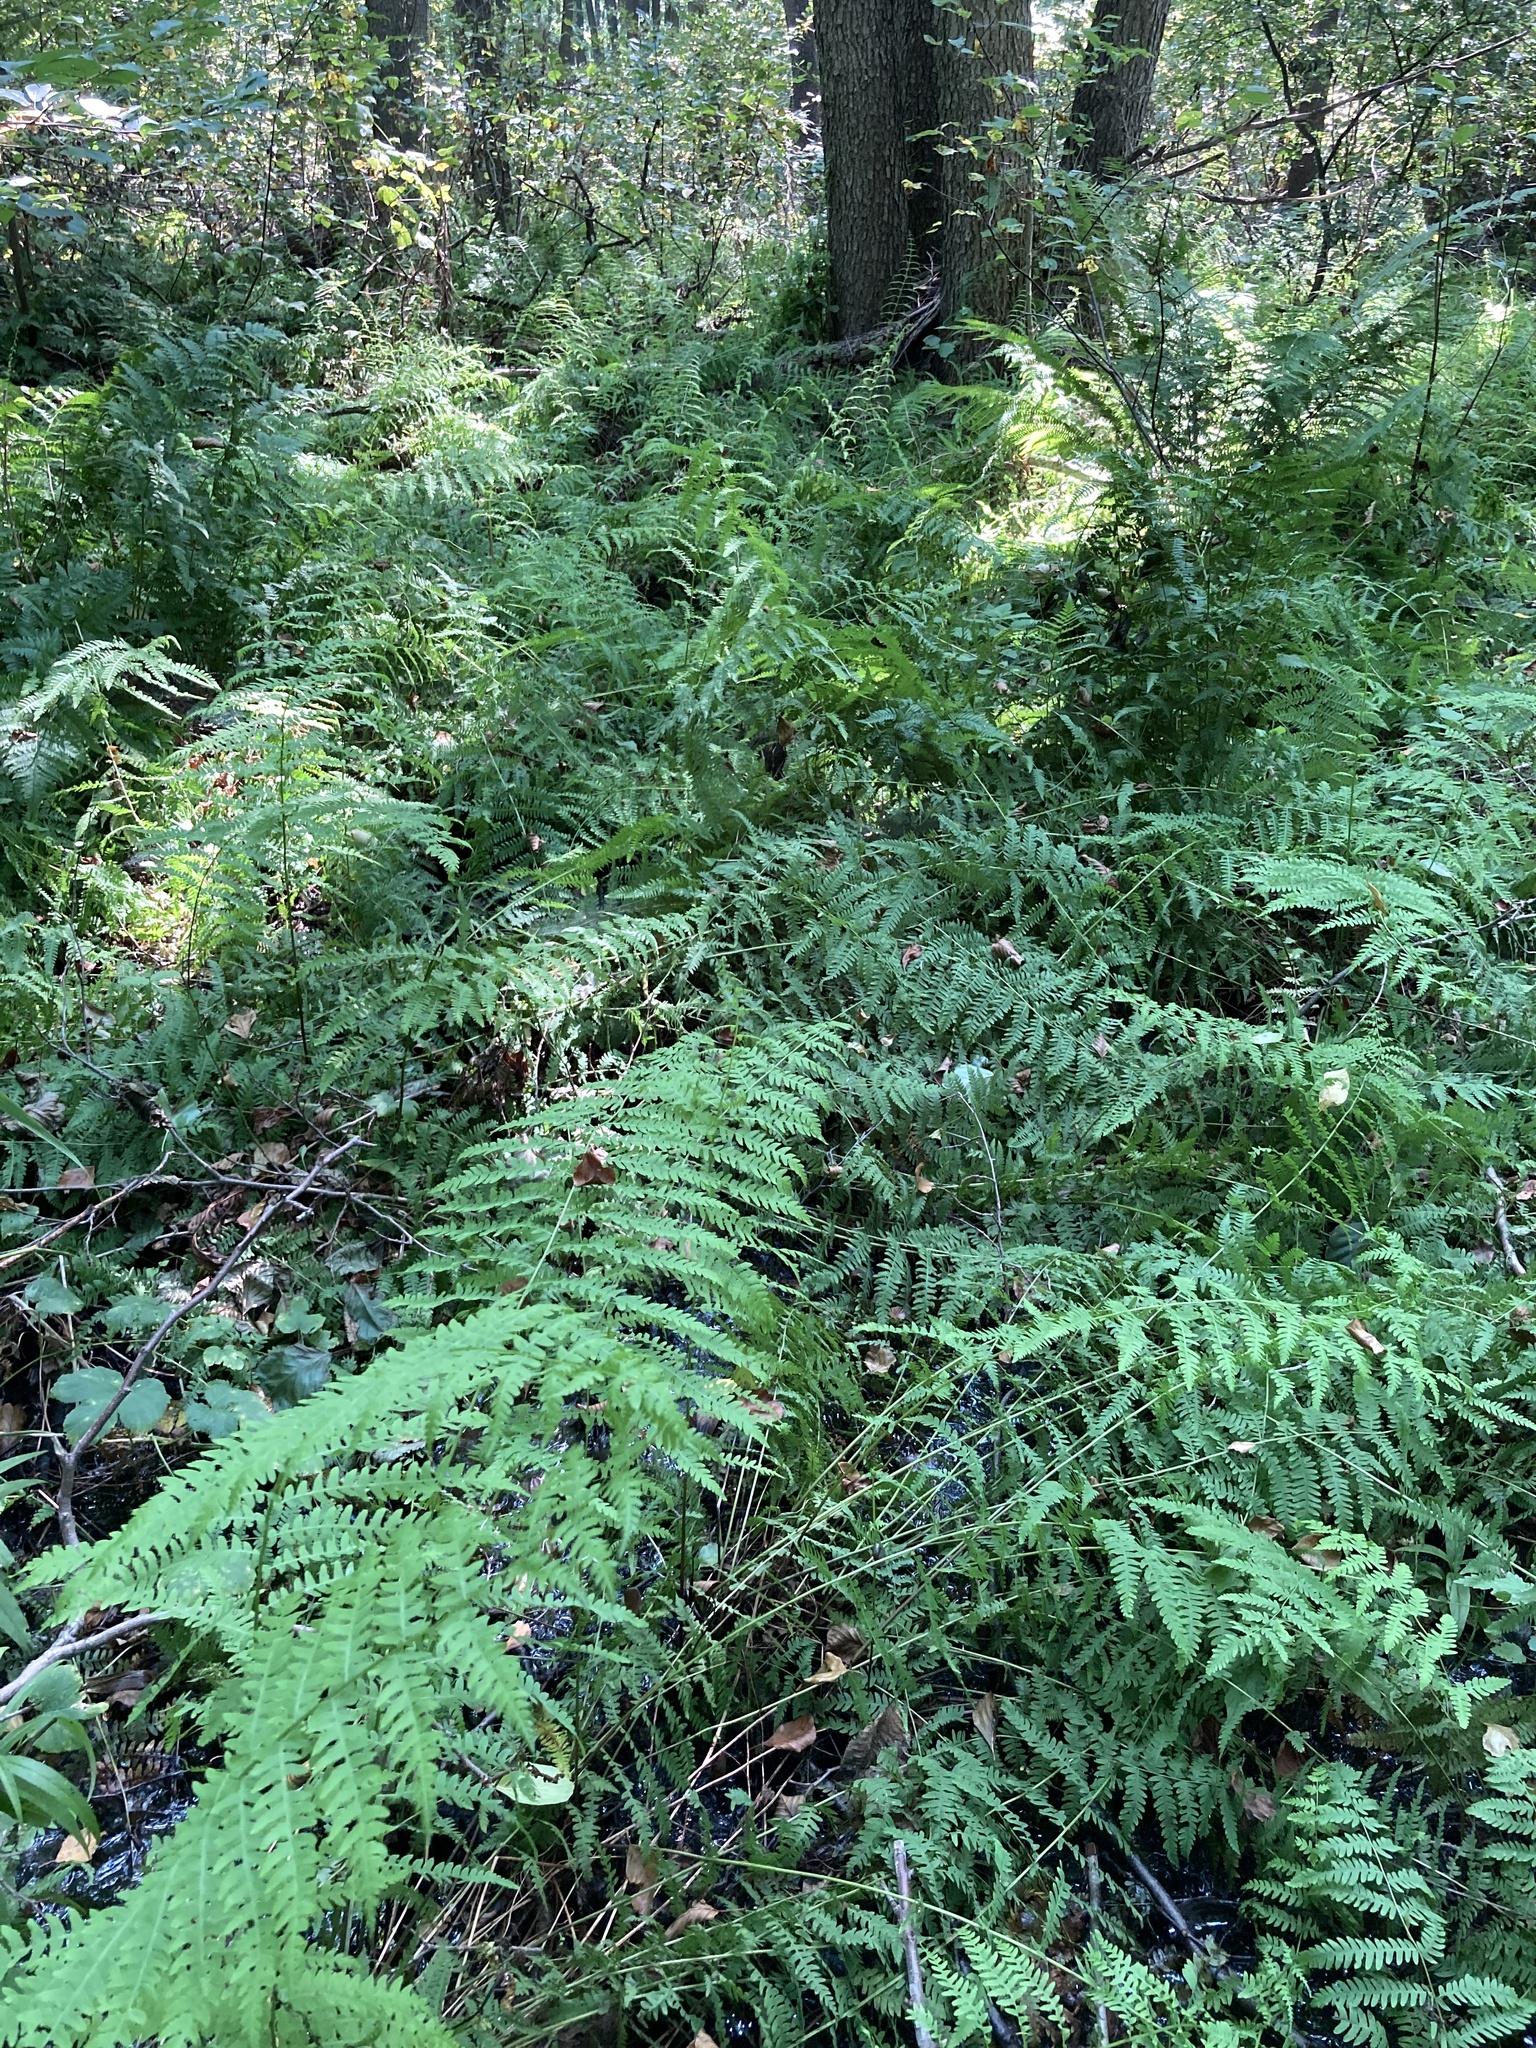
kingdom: Plantae
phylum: Tracheophyta
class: Polypodiopsida
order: Polypodiales
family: Thelypteridaceae
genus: Thelypteris
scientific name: Thelypteris palustris
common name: Marsh fern
